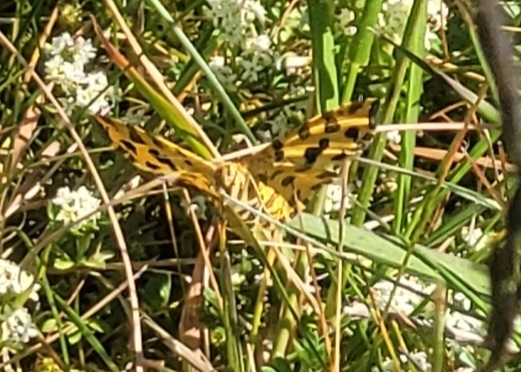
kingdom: Animalia
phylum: Arthropoda
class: Insecta
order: Lepidoptera
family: Geometridae
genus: Pseudopanthera
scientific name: Pseudopanthera macularia
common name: Speckled yellow
